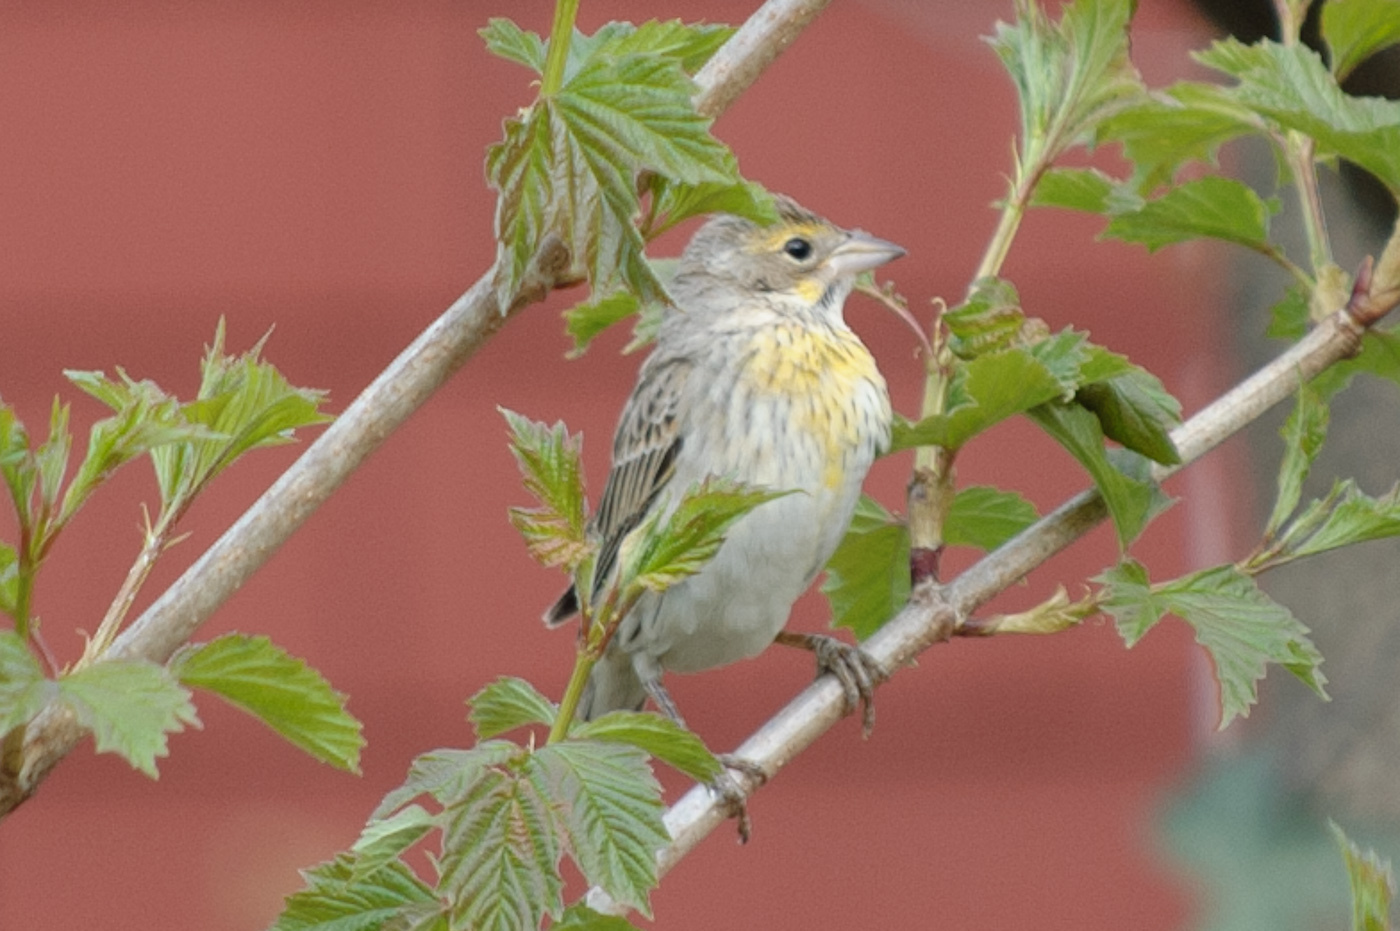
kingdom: Animalia
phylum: Chordata
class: Aves
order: Passeriformes
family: Cardinalidae
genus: Spiza
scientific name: Spiza americana
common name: Dickcissel
